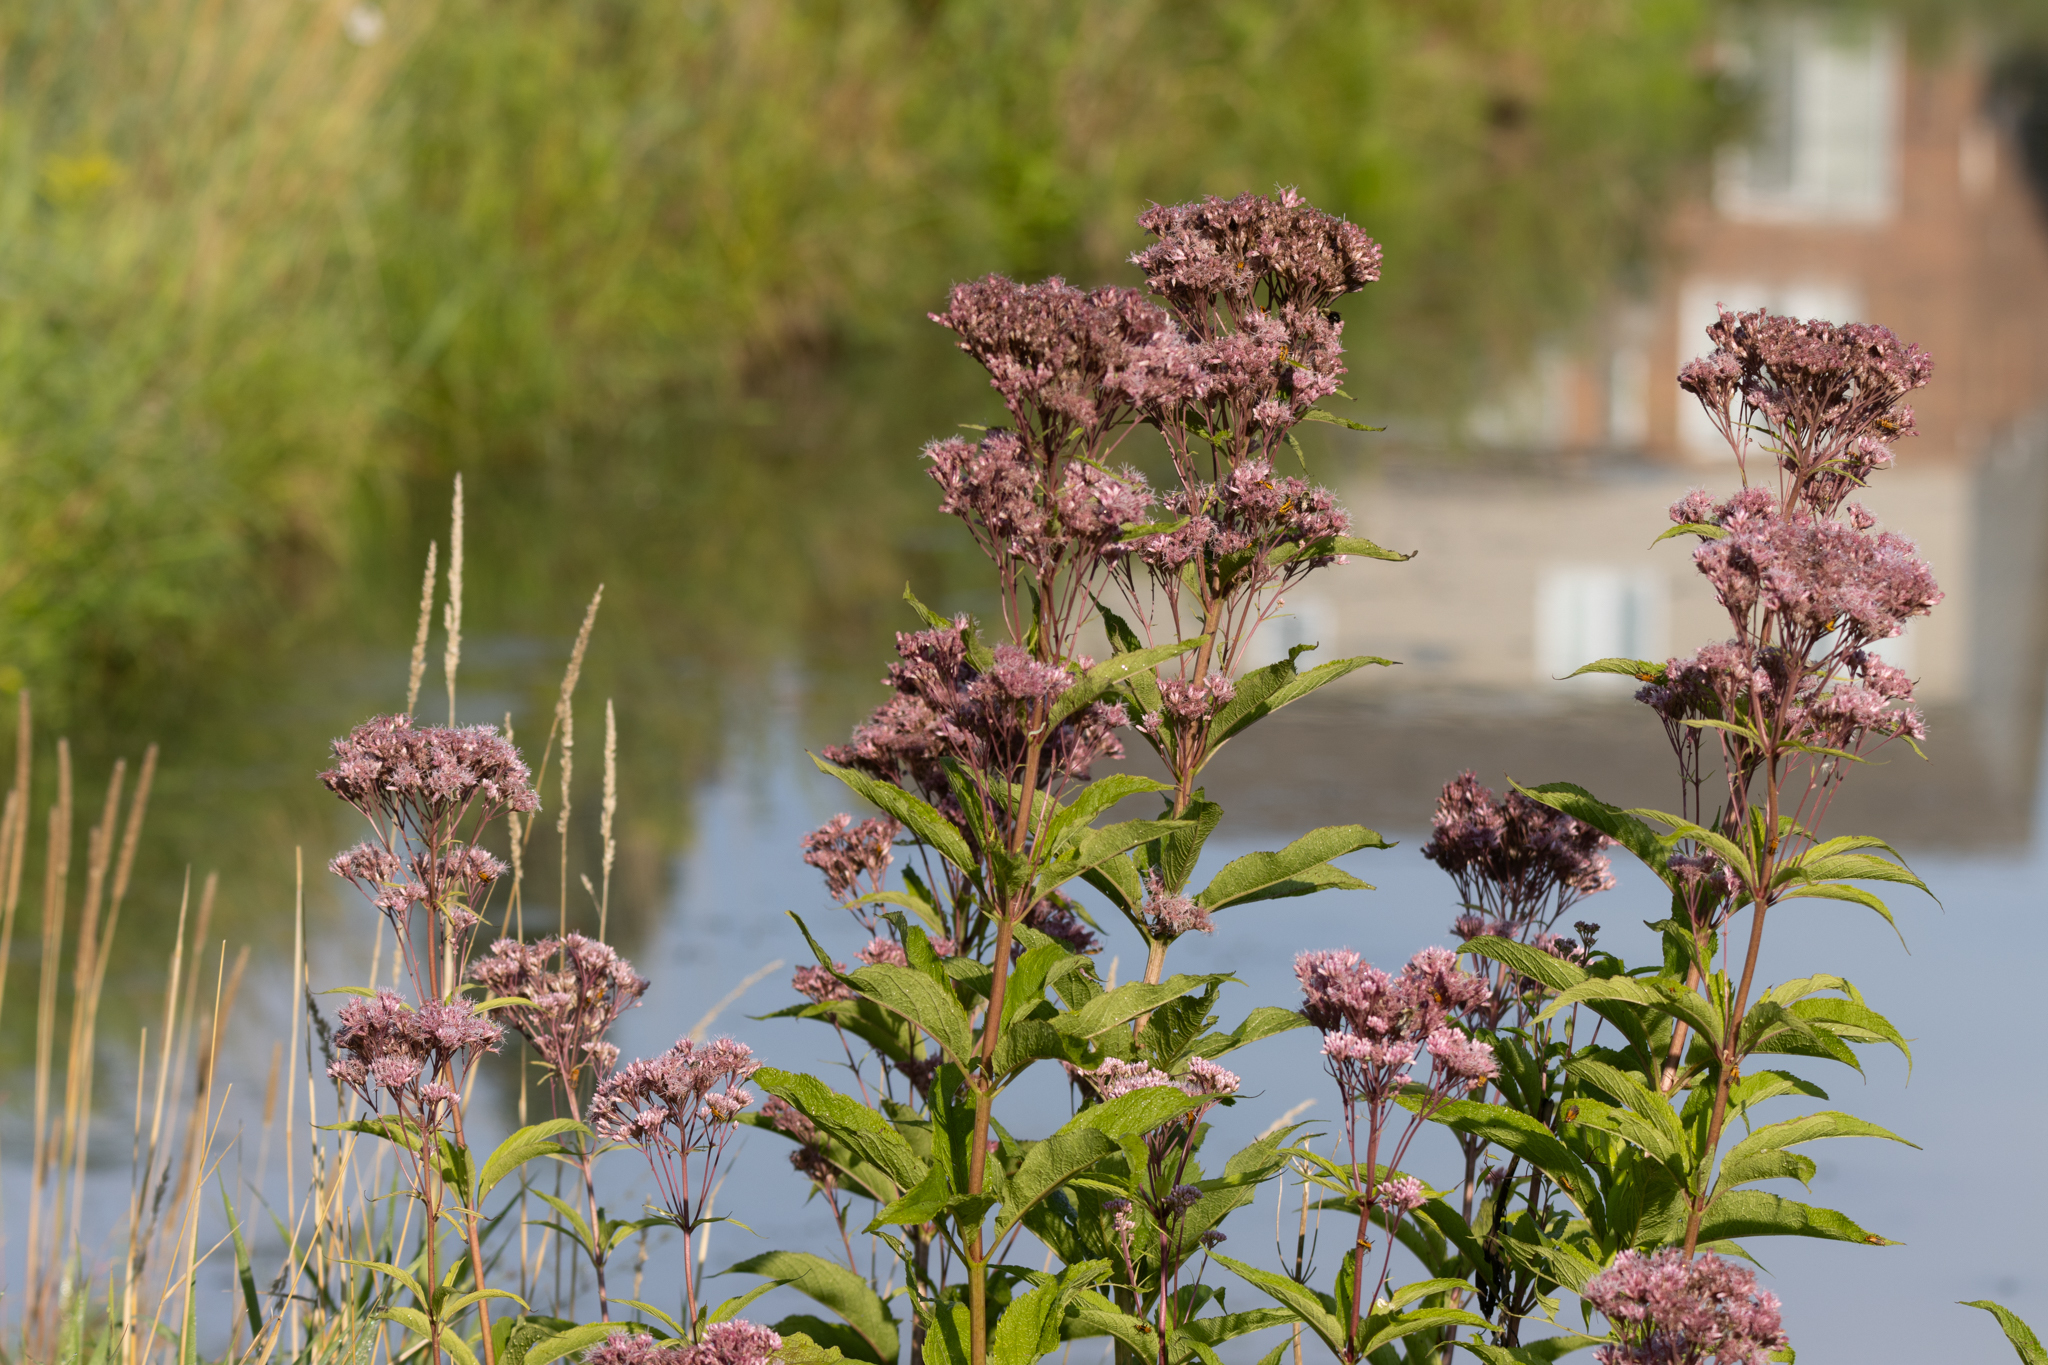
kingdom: Plantae
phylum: Tracheophyta
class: Magnoliopsida
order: Asterales
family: Asteraceae
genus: Eutrochium
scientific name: Eutrochium maculatum
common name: Spotted joe pye weed
